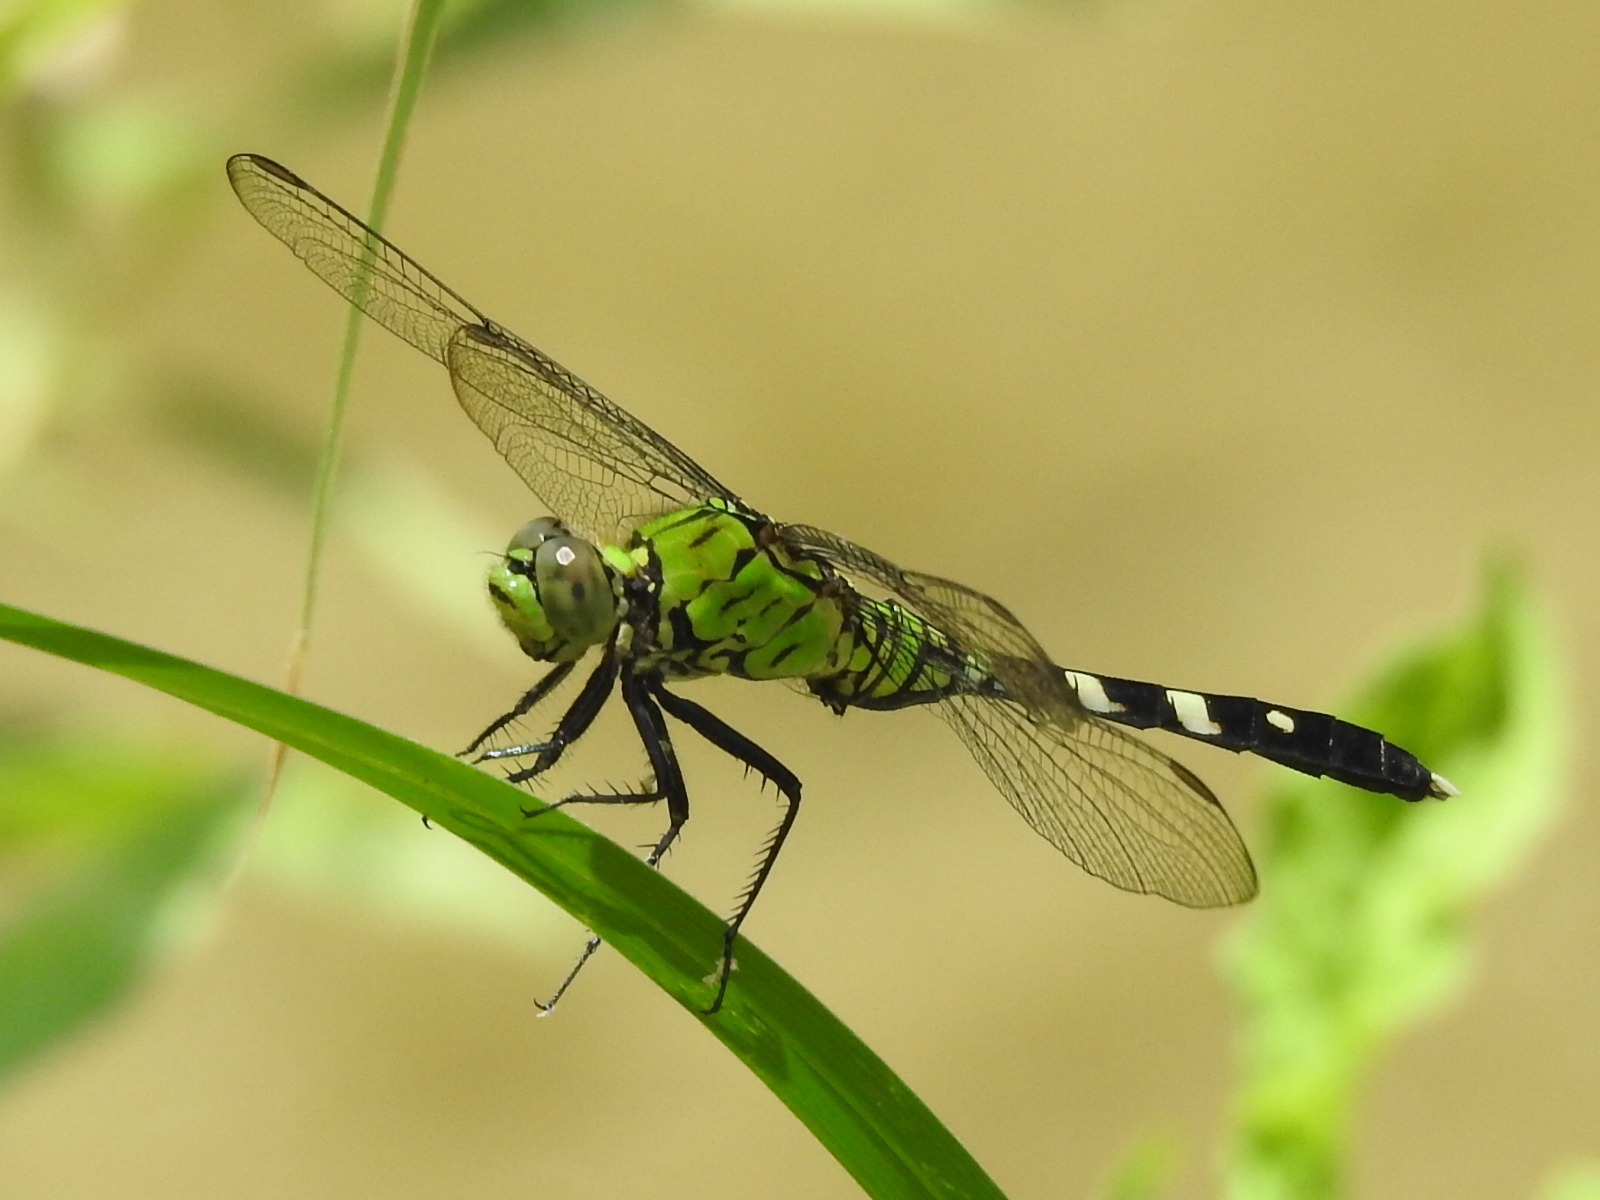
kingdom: Animalia
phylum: Arthropoda
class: Insecta
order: Odonata
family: Libellulidae
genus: Erythemis
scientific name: Erythemis simplicicollis
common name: Eastern pondhawk
